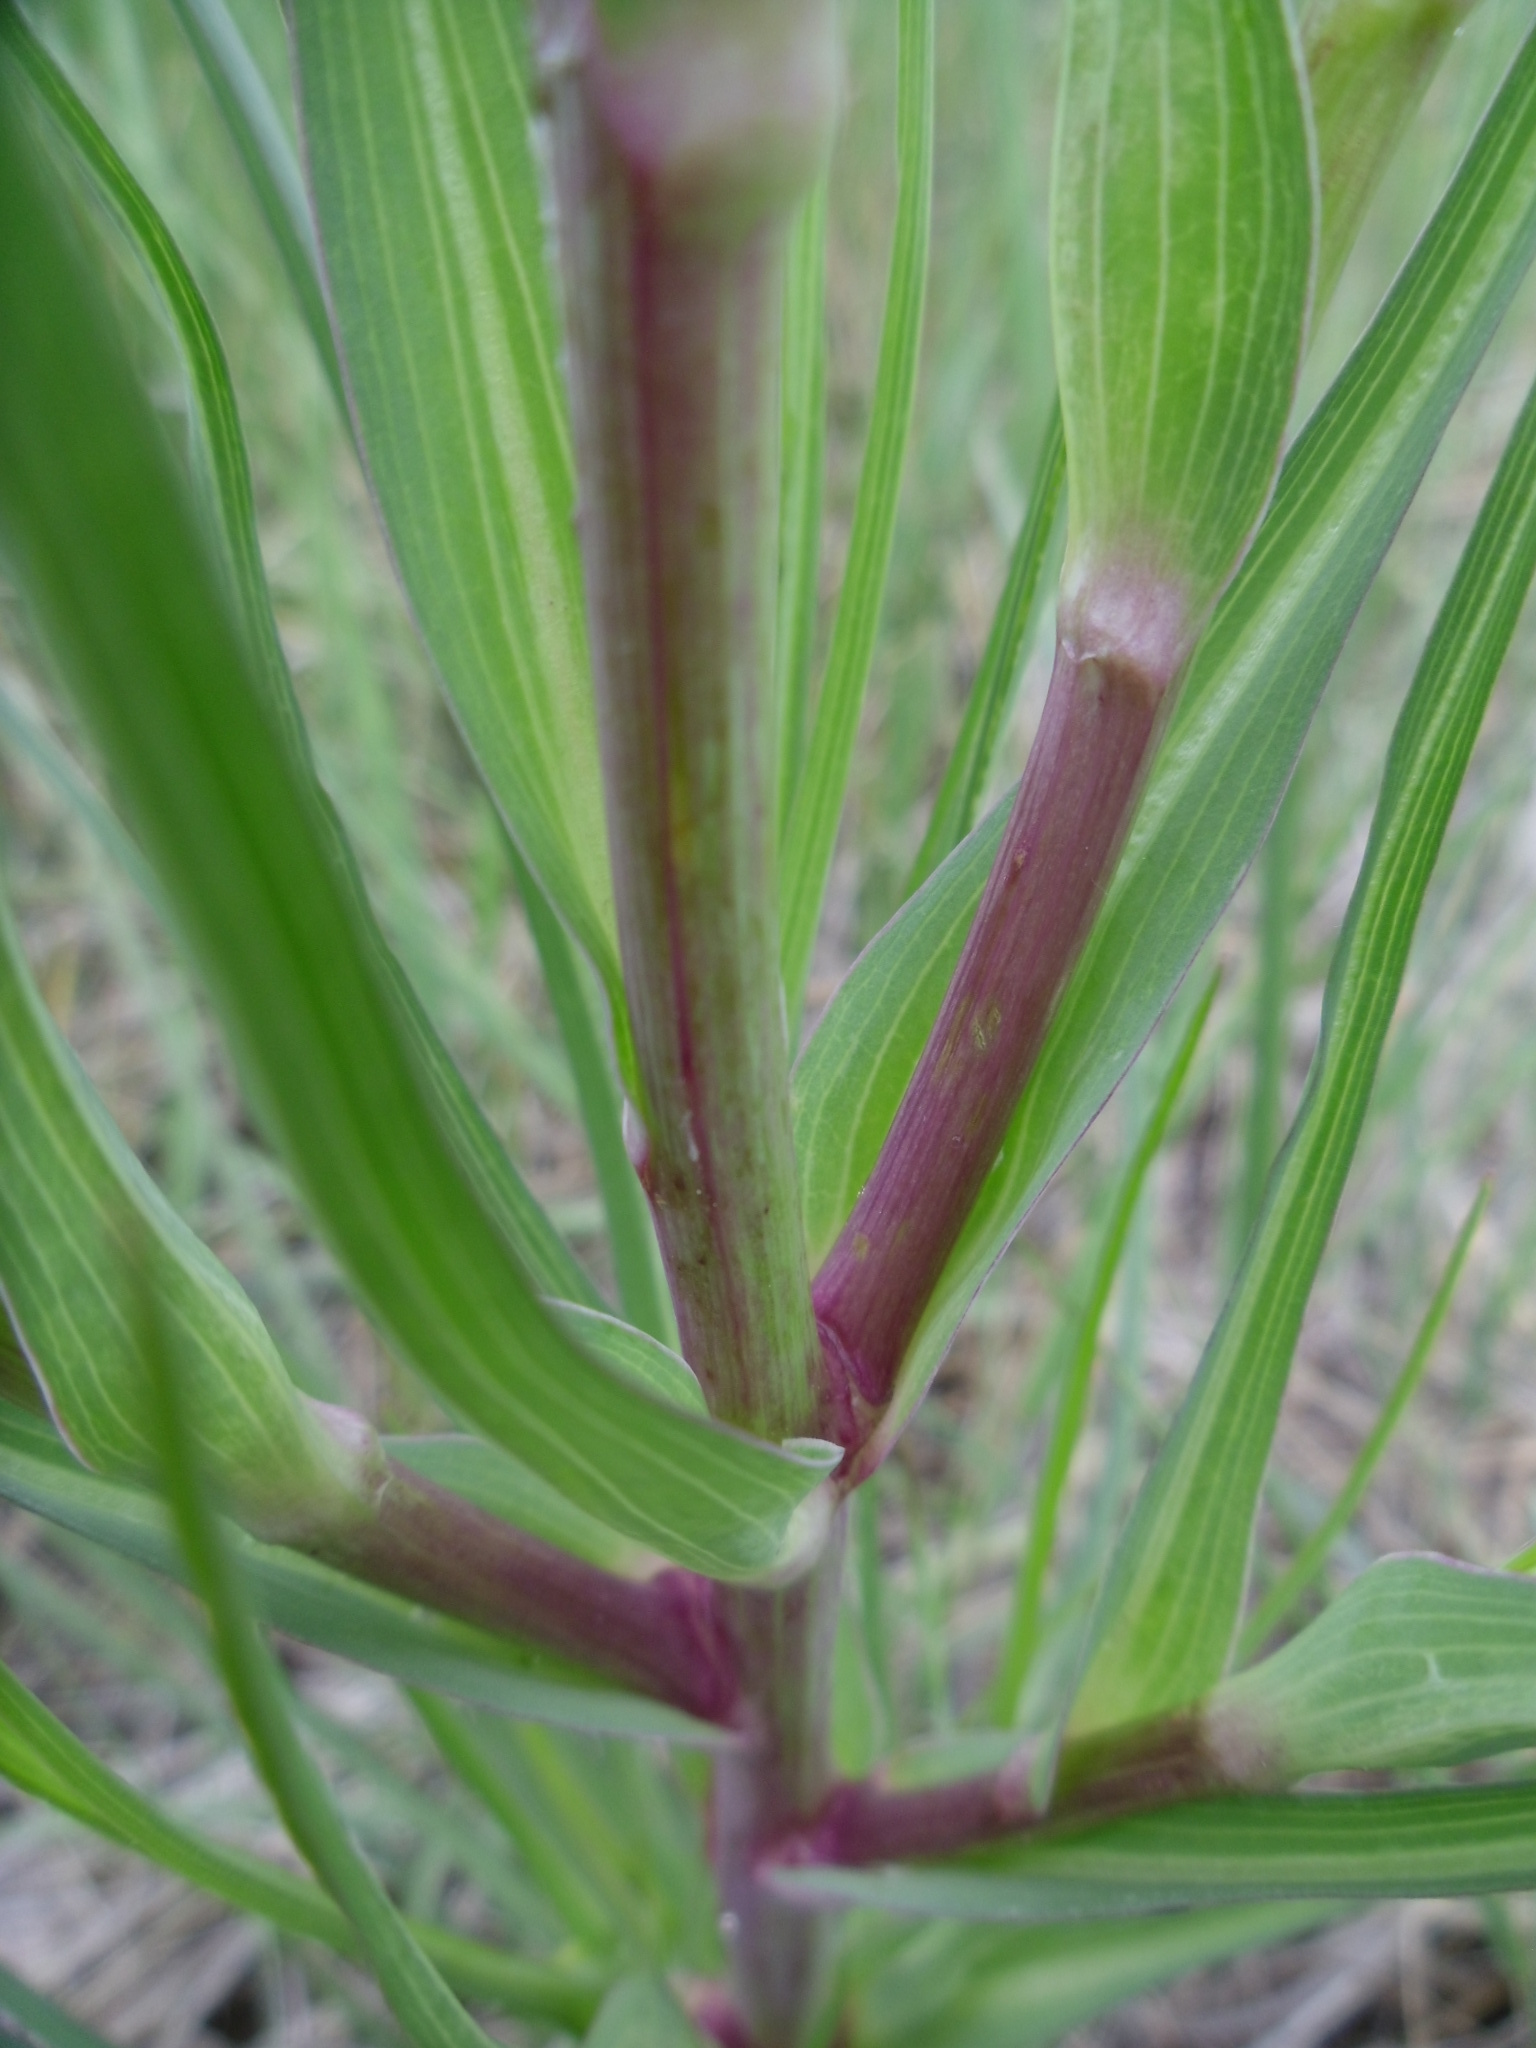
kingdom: Plantae
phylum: Tracheophyta
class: Magnoliopsida
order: Asterales
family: Asteraceae
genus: Tragopogon
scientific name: Tragopogon dubius
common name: Yellow salsify
